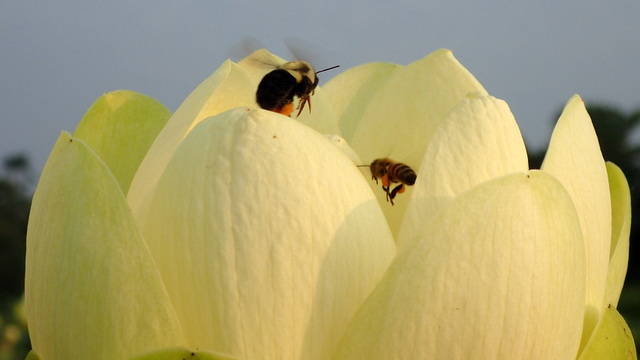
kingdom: Animalia
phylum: Arthropoda
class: Insecta
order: Hymenoptera
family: Apidae
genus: Apis
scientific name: Apis mellifera
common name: Honey bee
